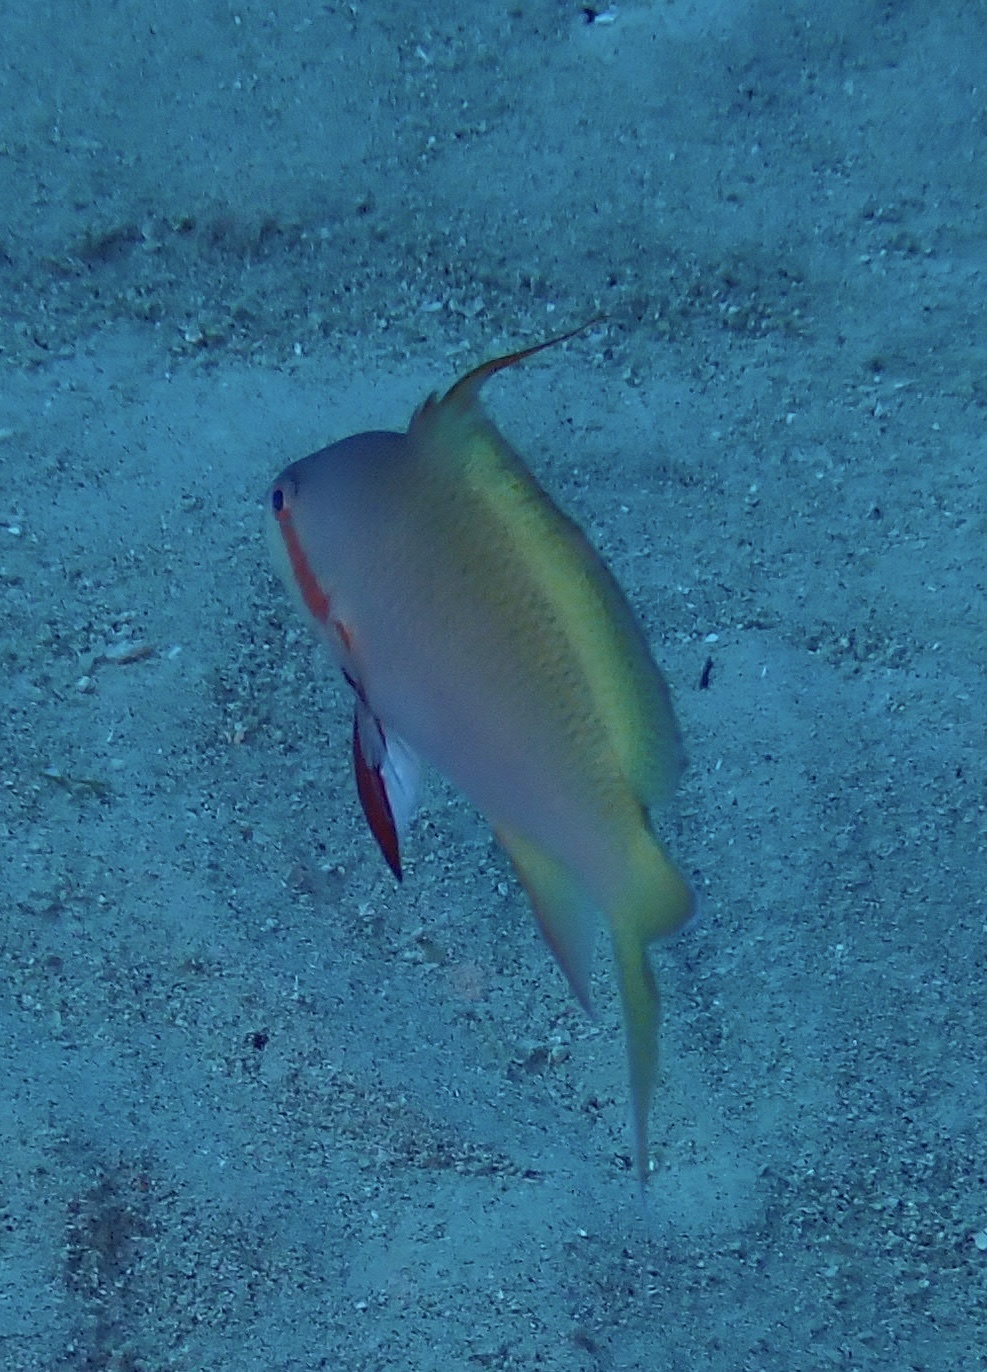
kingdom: Animalia
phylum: Chordata
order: Perciformes
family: Serranidae
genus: Pseudanthias
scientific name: Pseudanthias huchtii
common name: Pacific basslet
